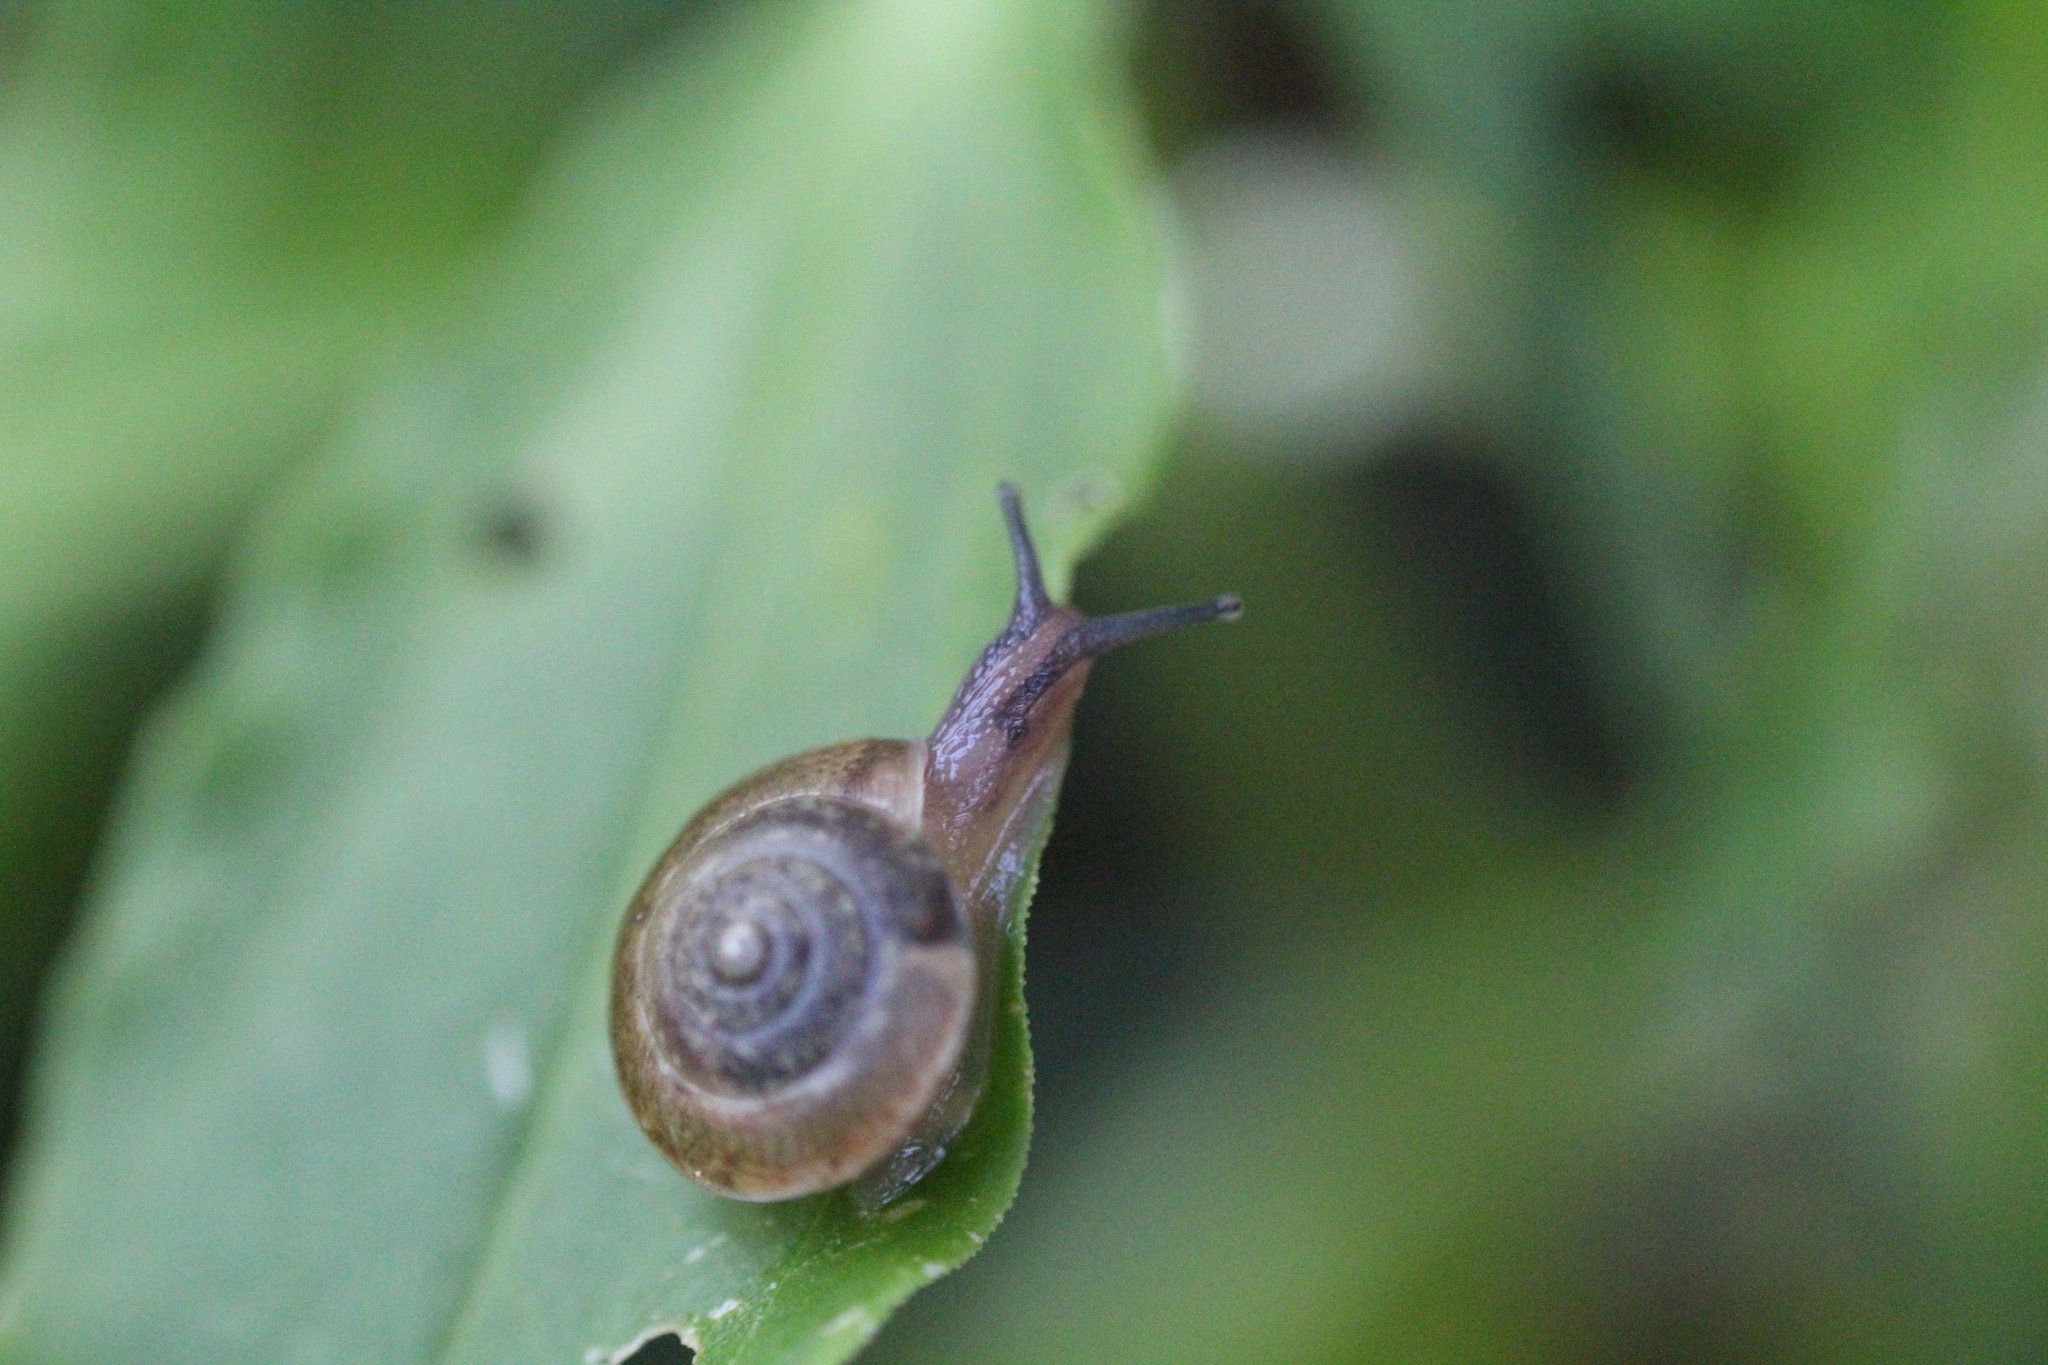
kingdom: Animalia
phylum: Mollusca
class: Gastropoda
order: Stylommatophora
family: Hygromiidae
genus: Hygromia
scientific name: Hygromia cinctella
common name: Girdled snail
